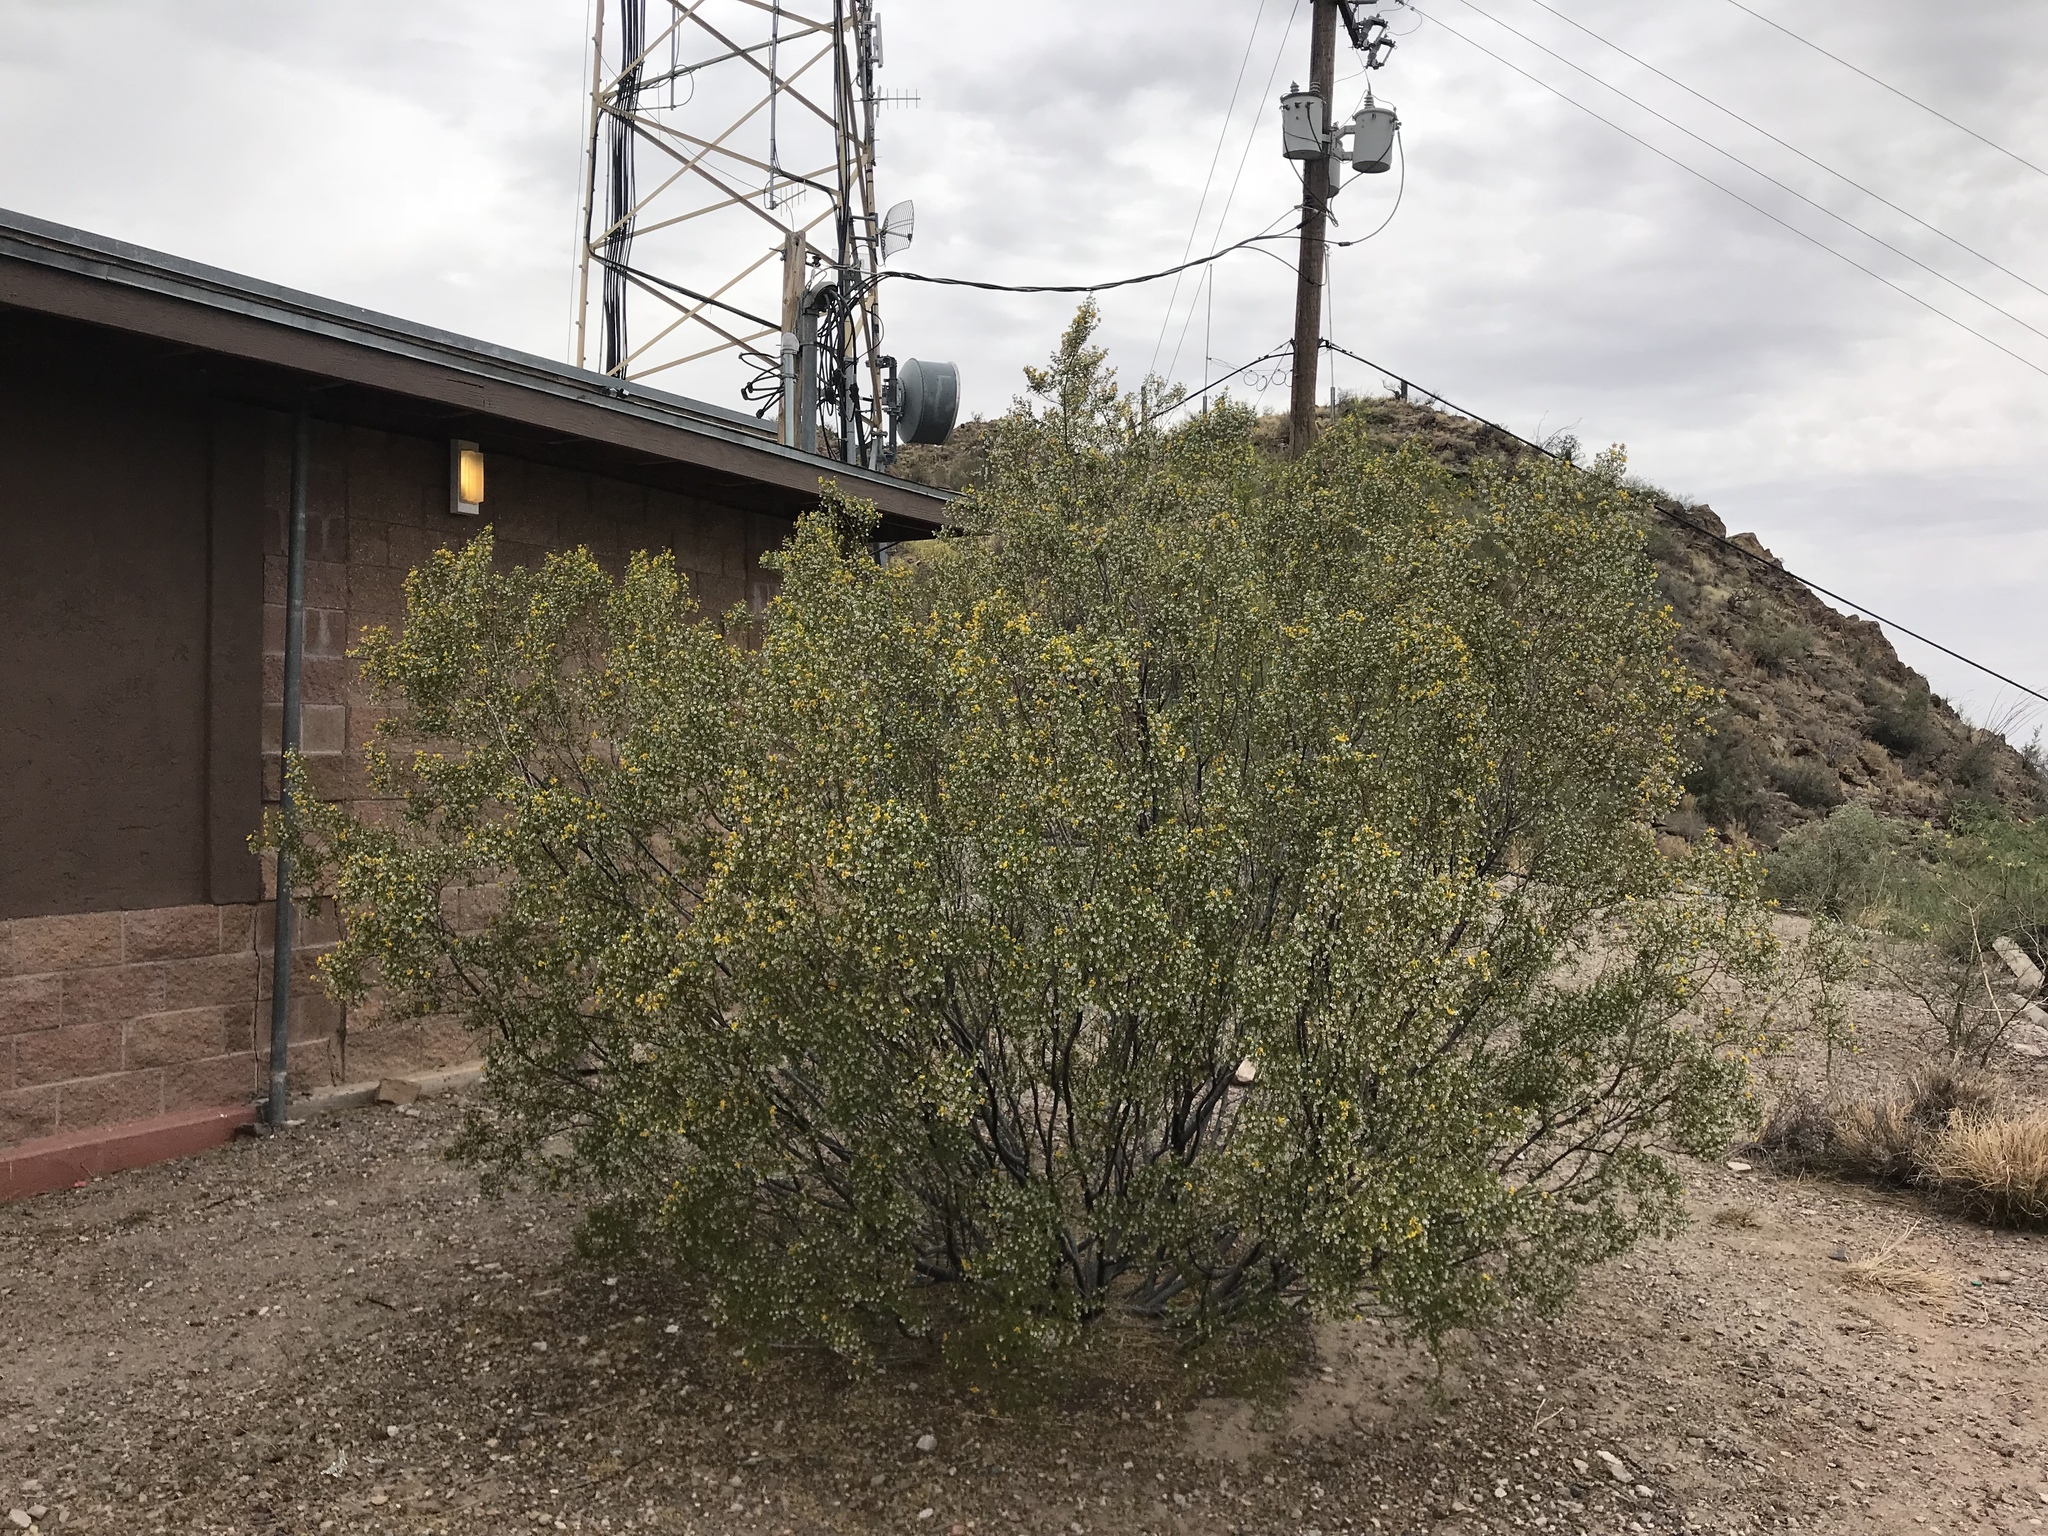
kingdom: Plantae
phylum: Tracheophyta
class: Magnoliopsida
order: Zygophyllales
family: Zygophyllaceae
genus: Larrea
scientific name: Larrea tridentata
